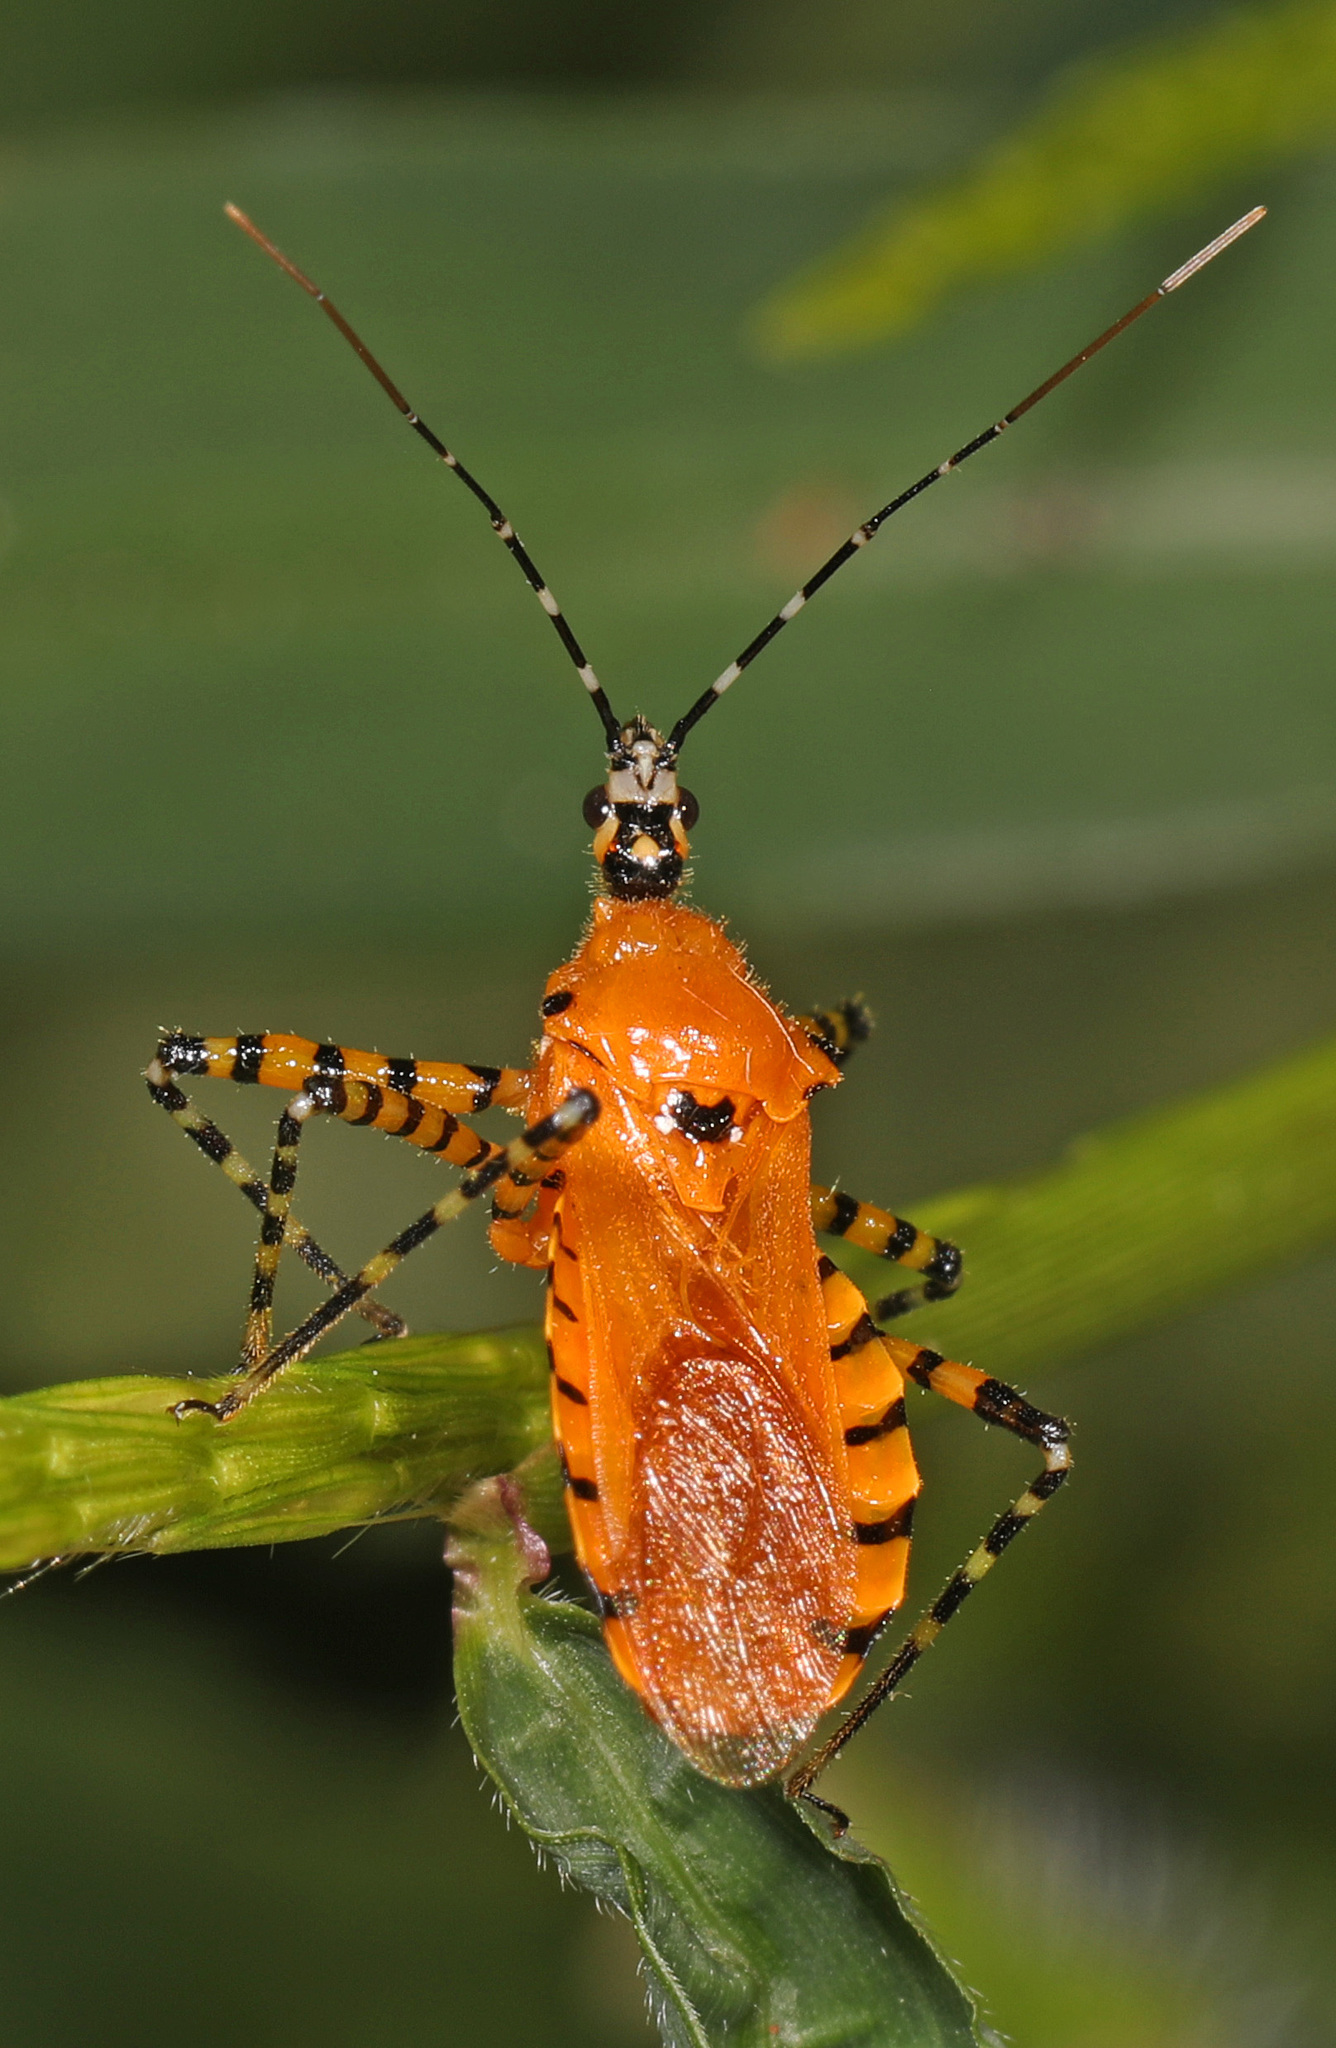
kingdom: Animalia
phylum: Arthropoda
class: Insecta
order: Hemiptera
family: Reduviidae
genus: Pselliopus
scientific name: Pselliopus barberi
